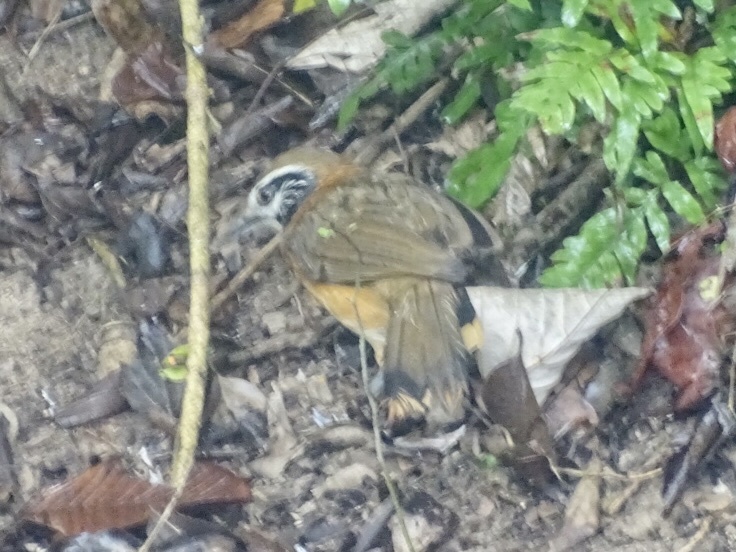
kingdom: Animalia
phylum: Chordata
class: Aves
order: Passeriformes
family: Leiothrichidae
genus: Garrulax
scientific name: Garrulax pectoralis
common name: Greater necklaced laughingthrush
